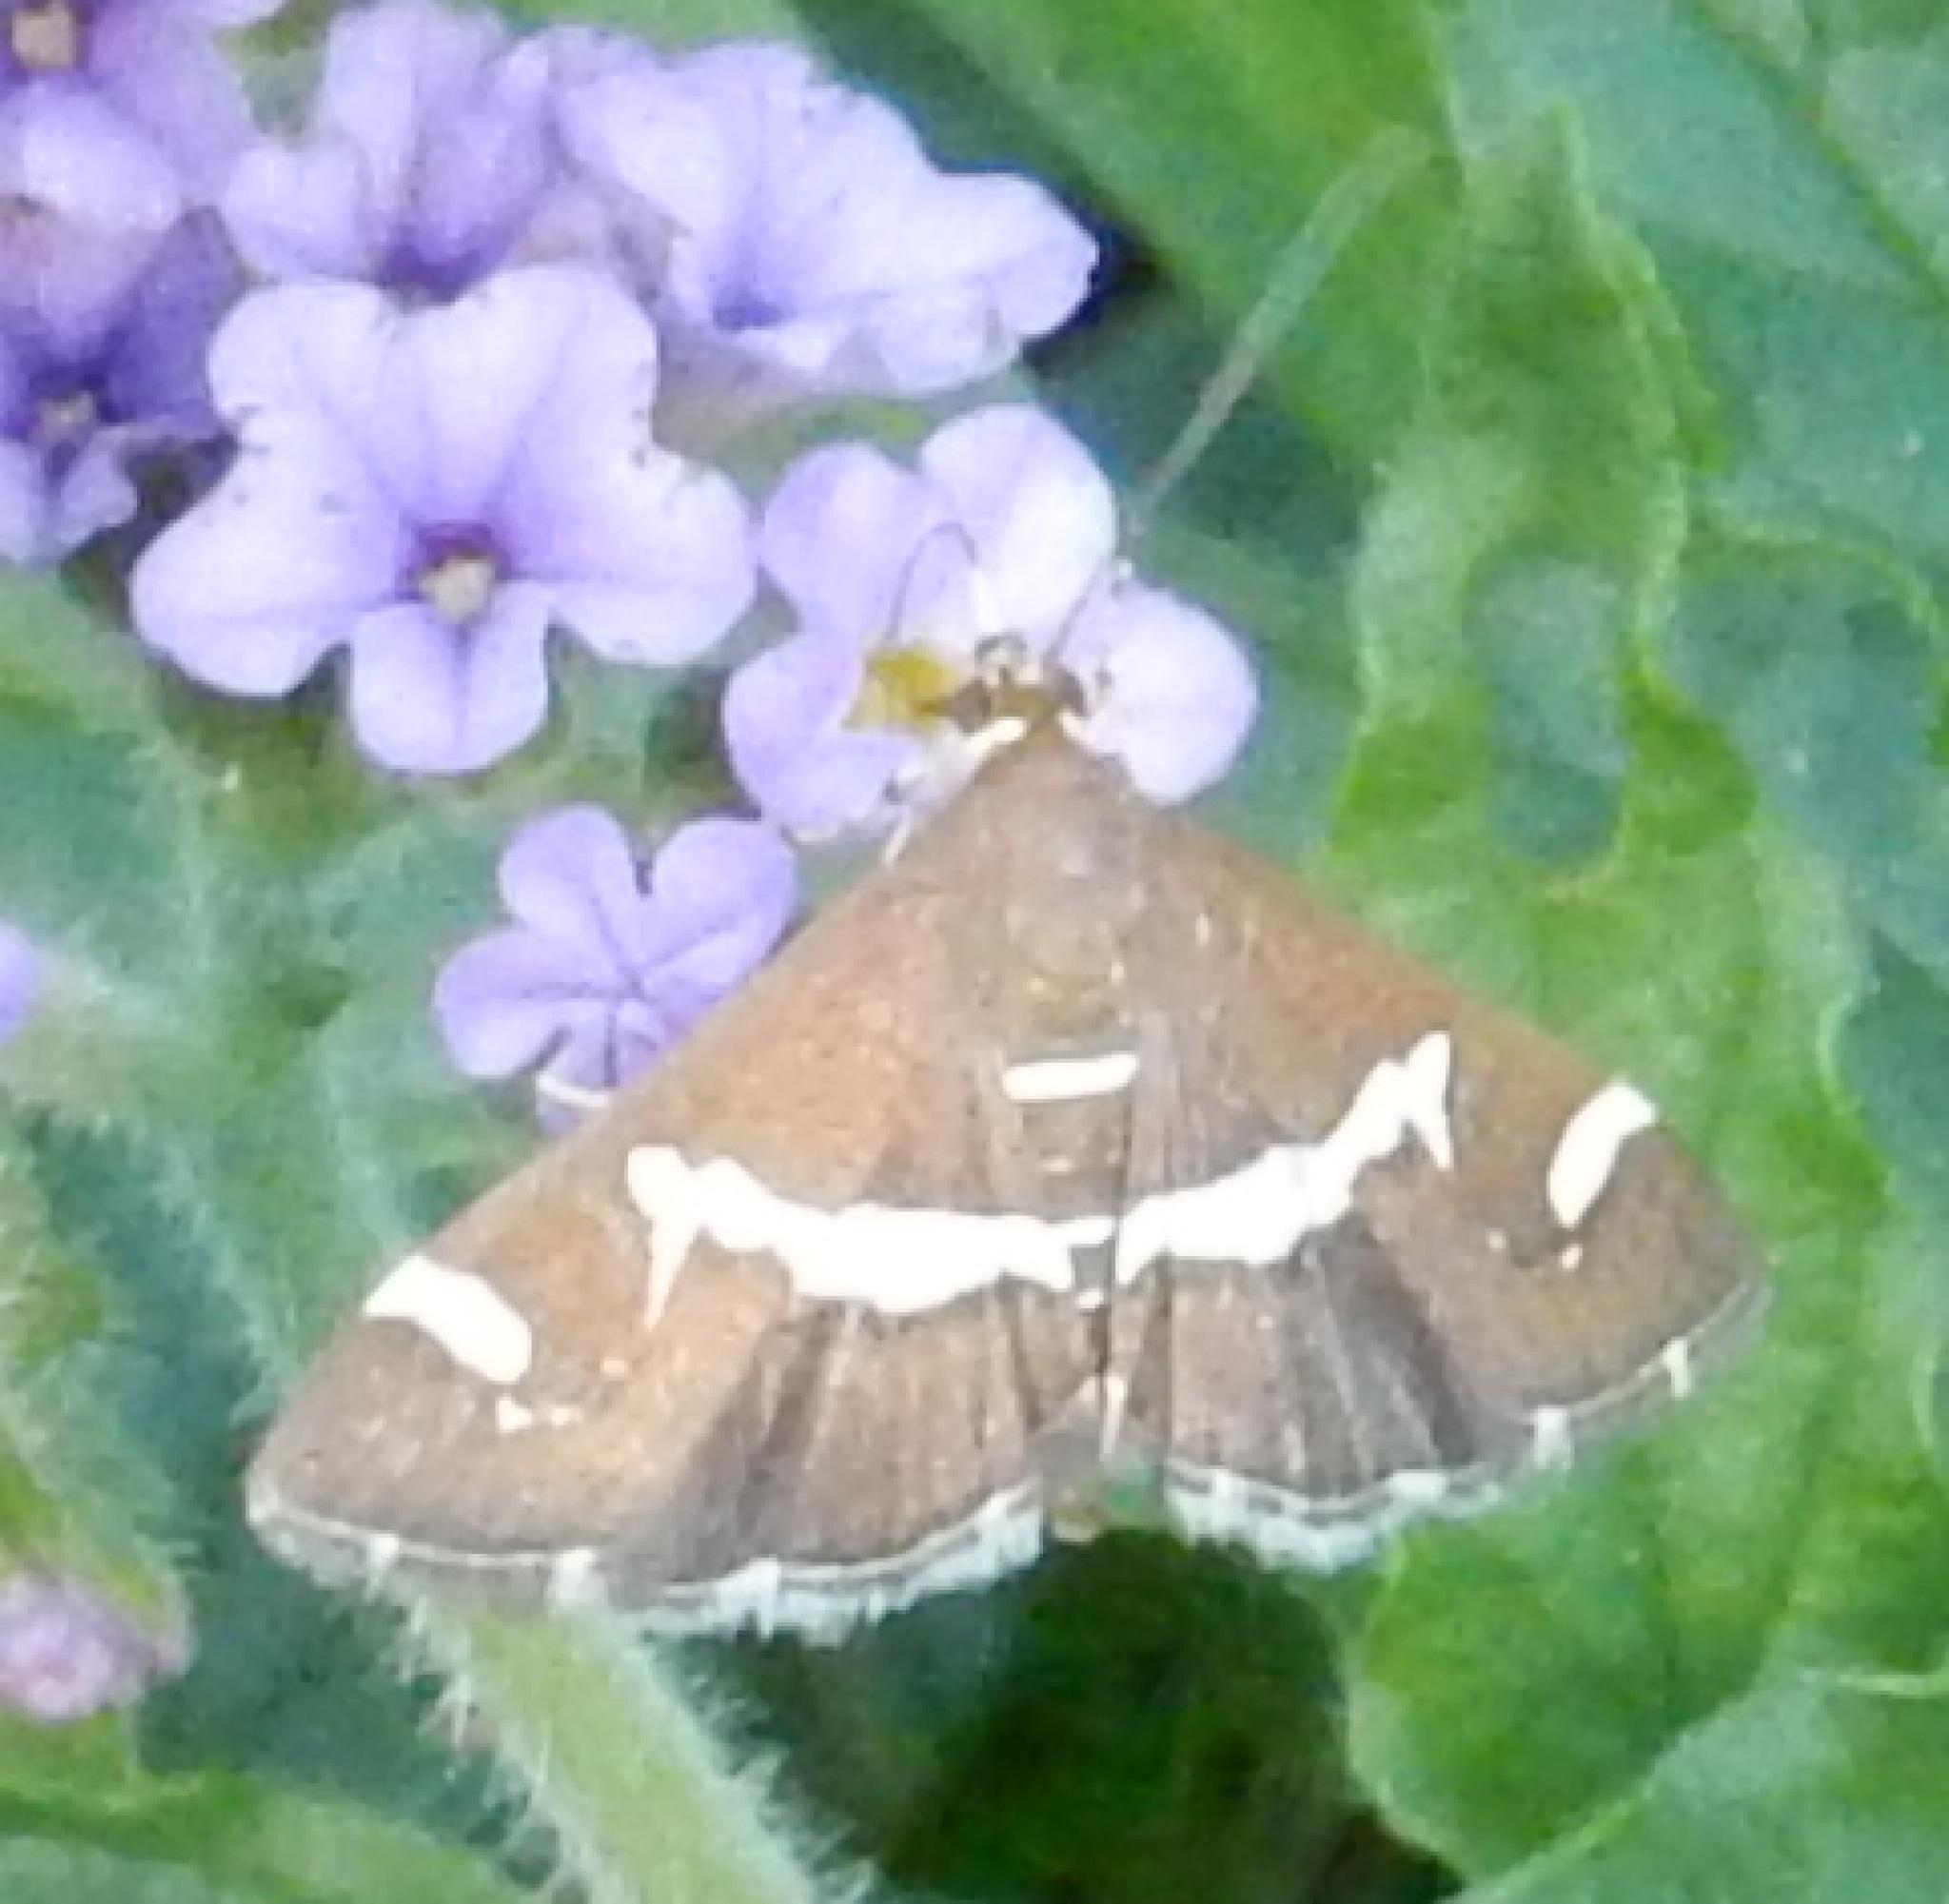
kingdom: Animalia
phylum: Arthropoda
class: Insecta
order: Lepidoptera
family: Crambidae
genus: Spoladea
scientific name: Spoladea recurvalis
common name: Beet webworm moth
